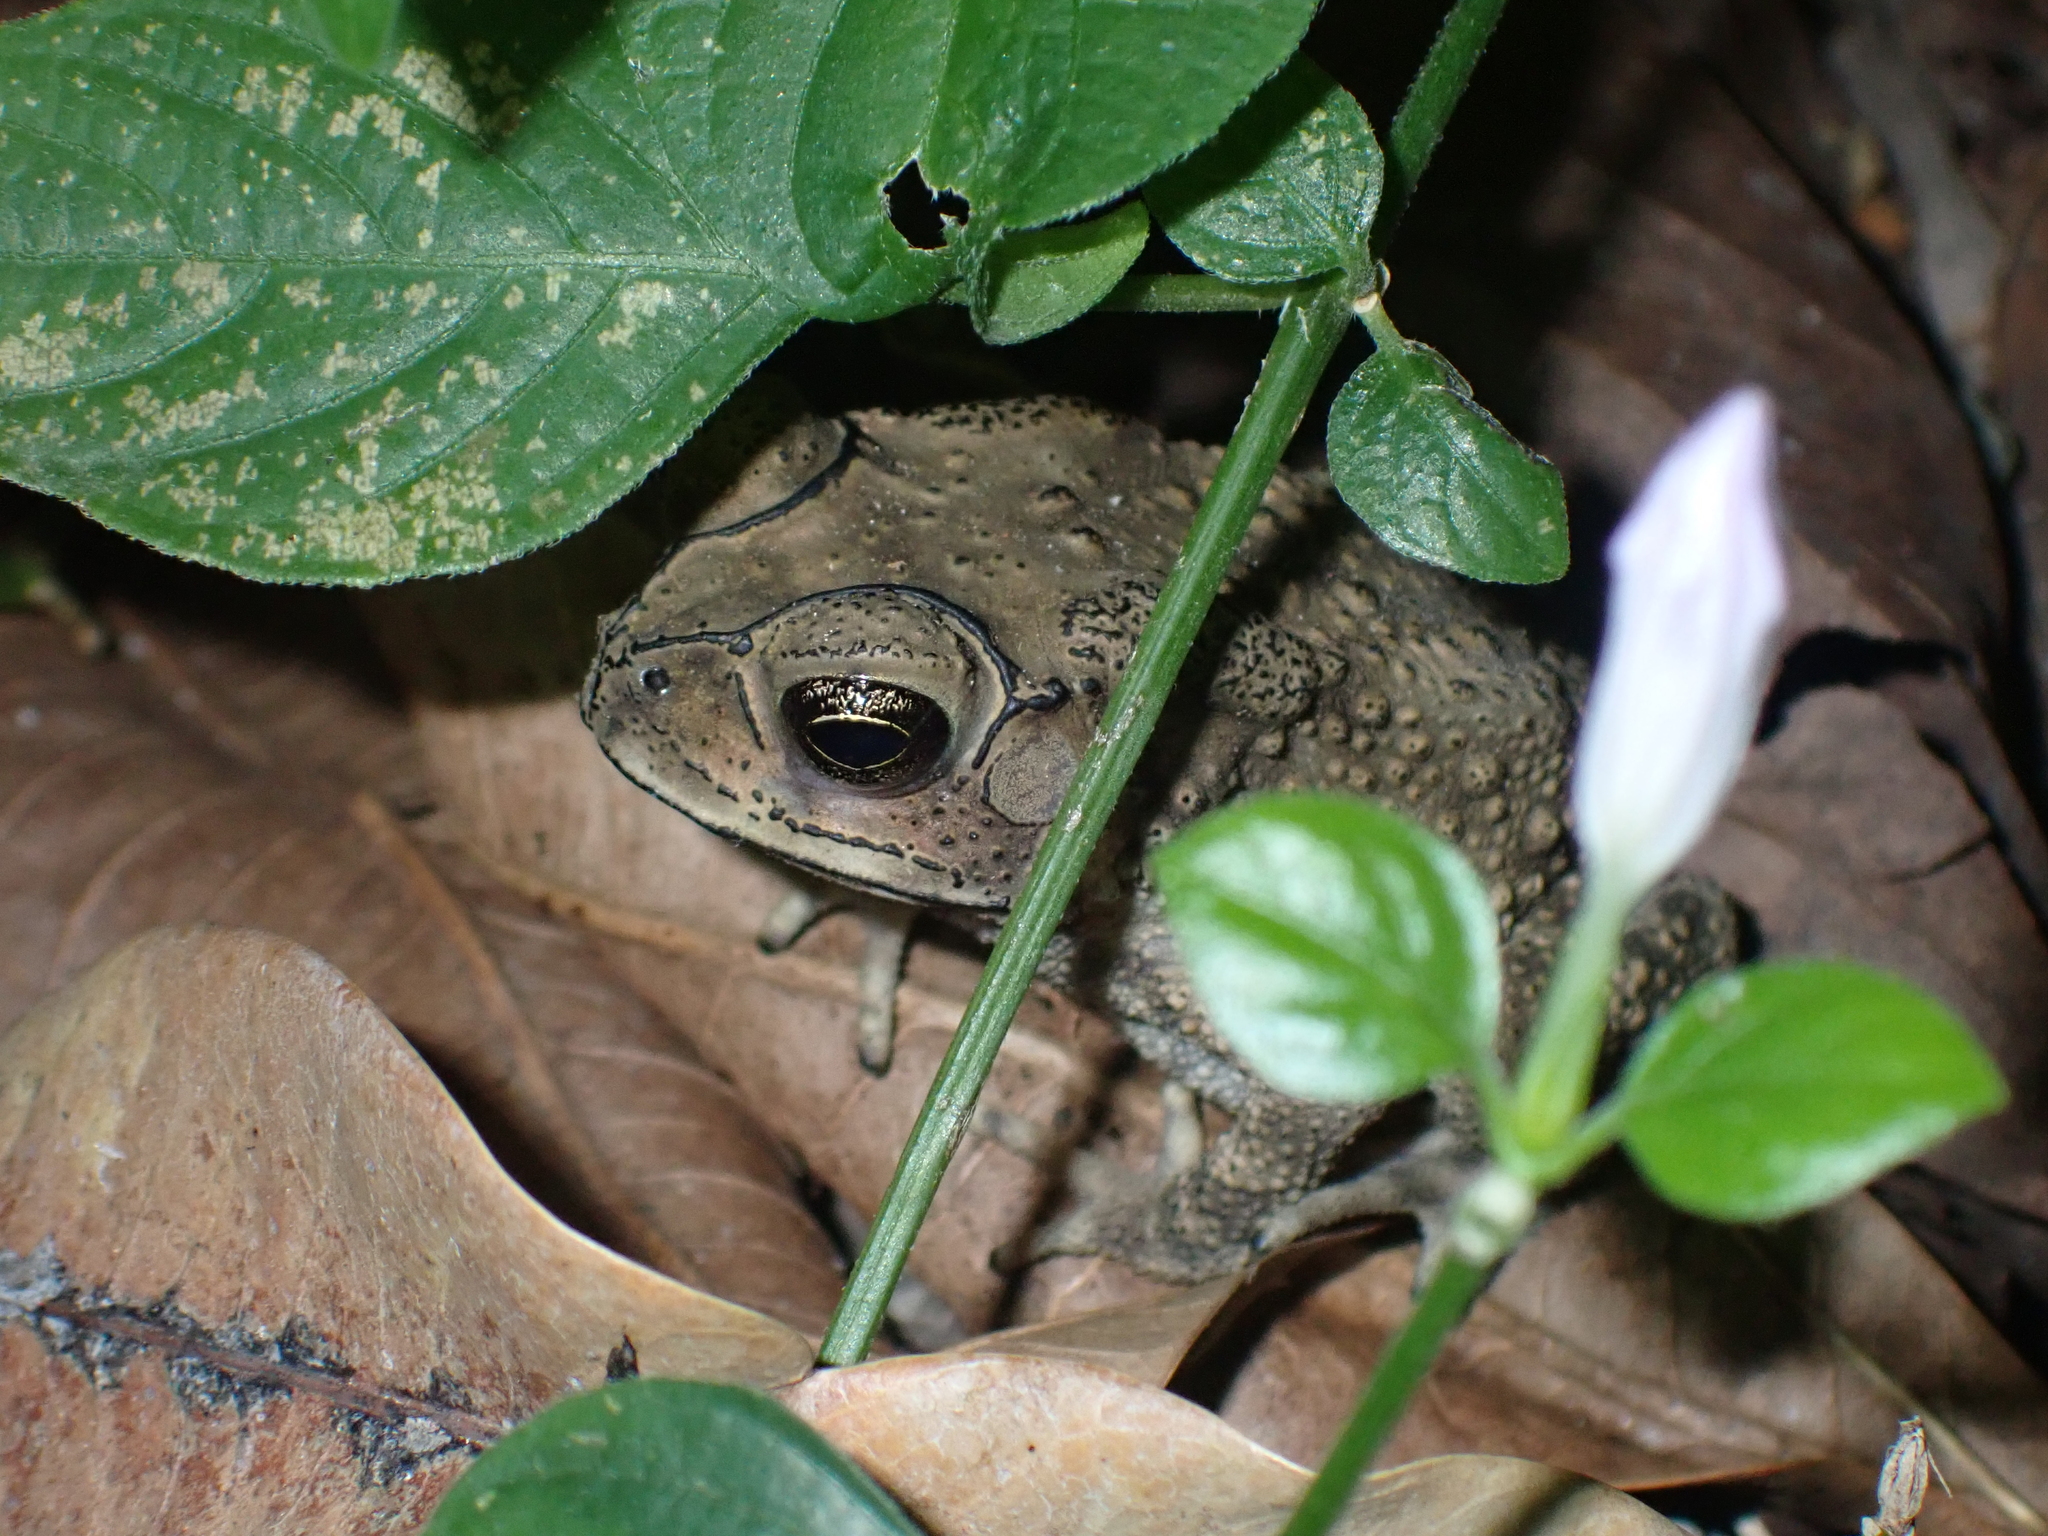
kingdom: Animalia
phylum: Chordata
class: Amphibia
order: Anura
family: Bufonidae
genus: Duttaphrynus
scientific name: Duttaphrynus melanostictus
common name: Common sunda toad
